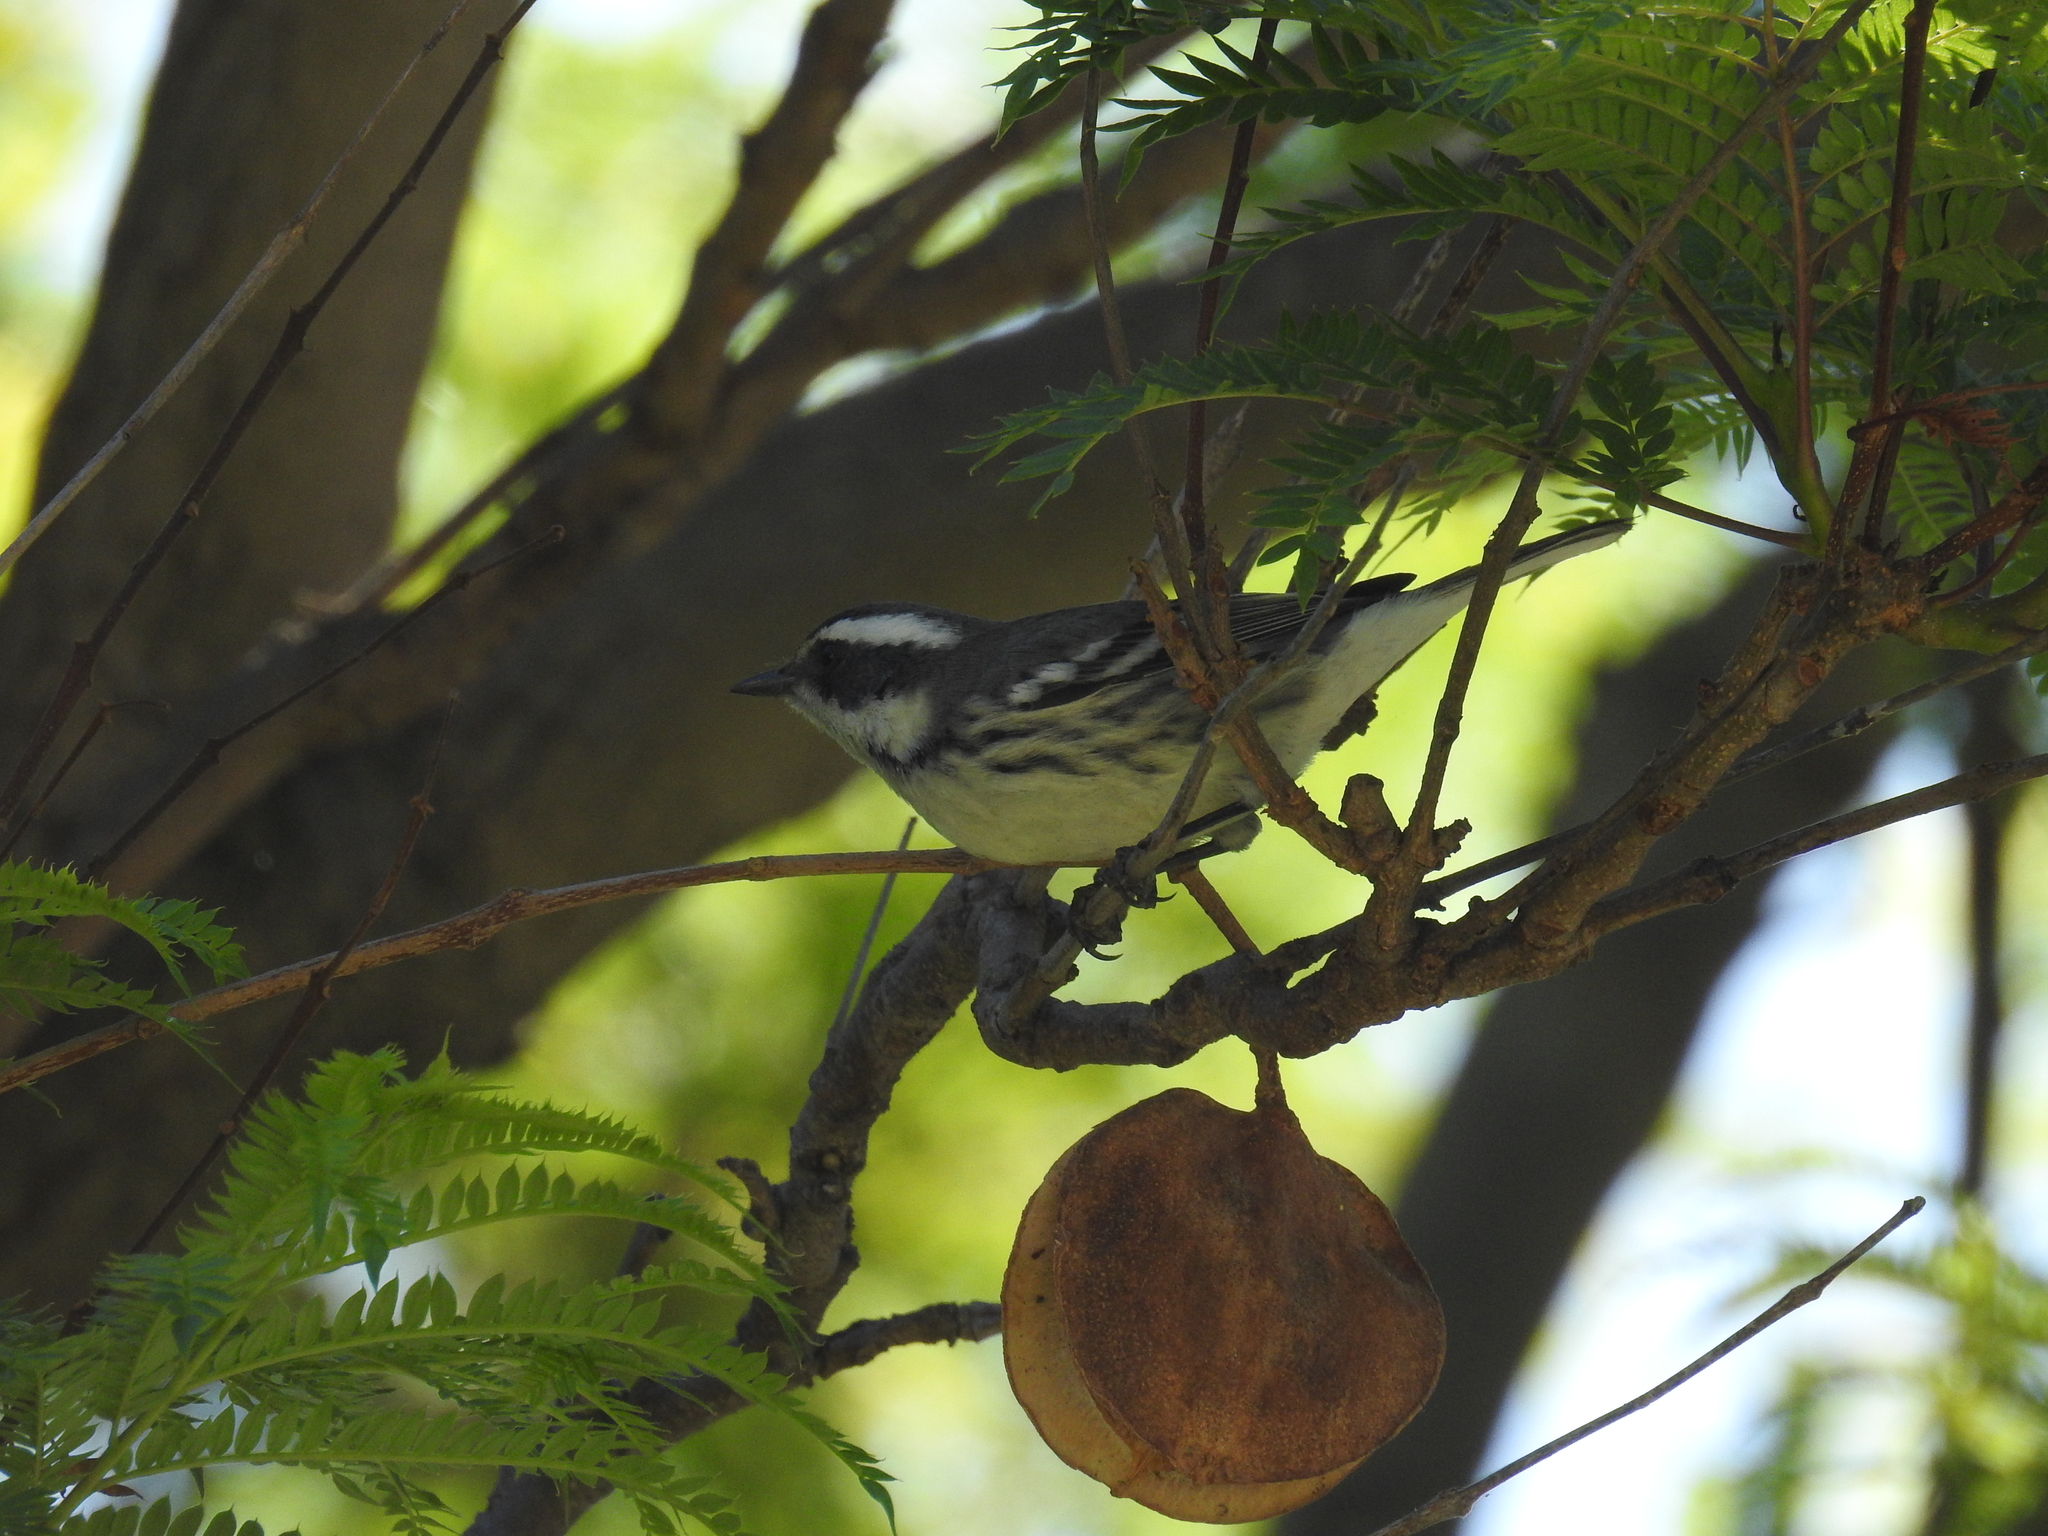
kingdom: Animalia
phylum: Chordata
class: Aves
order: Passeriformes
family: Parulidae
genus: Setophaga
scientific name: Setophaga nigrescens
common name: Black-throated gray warbler
